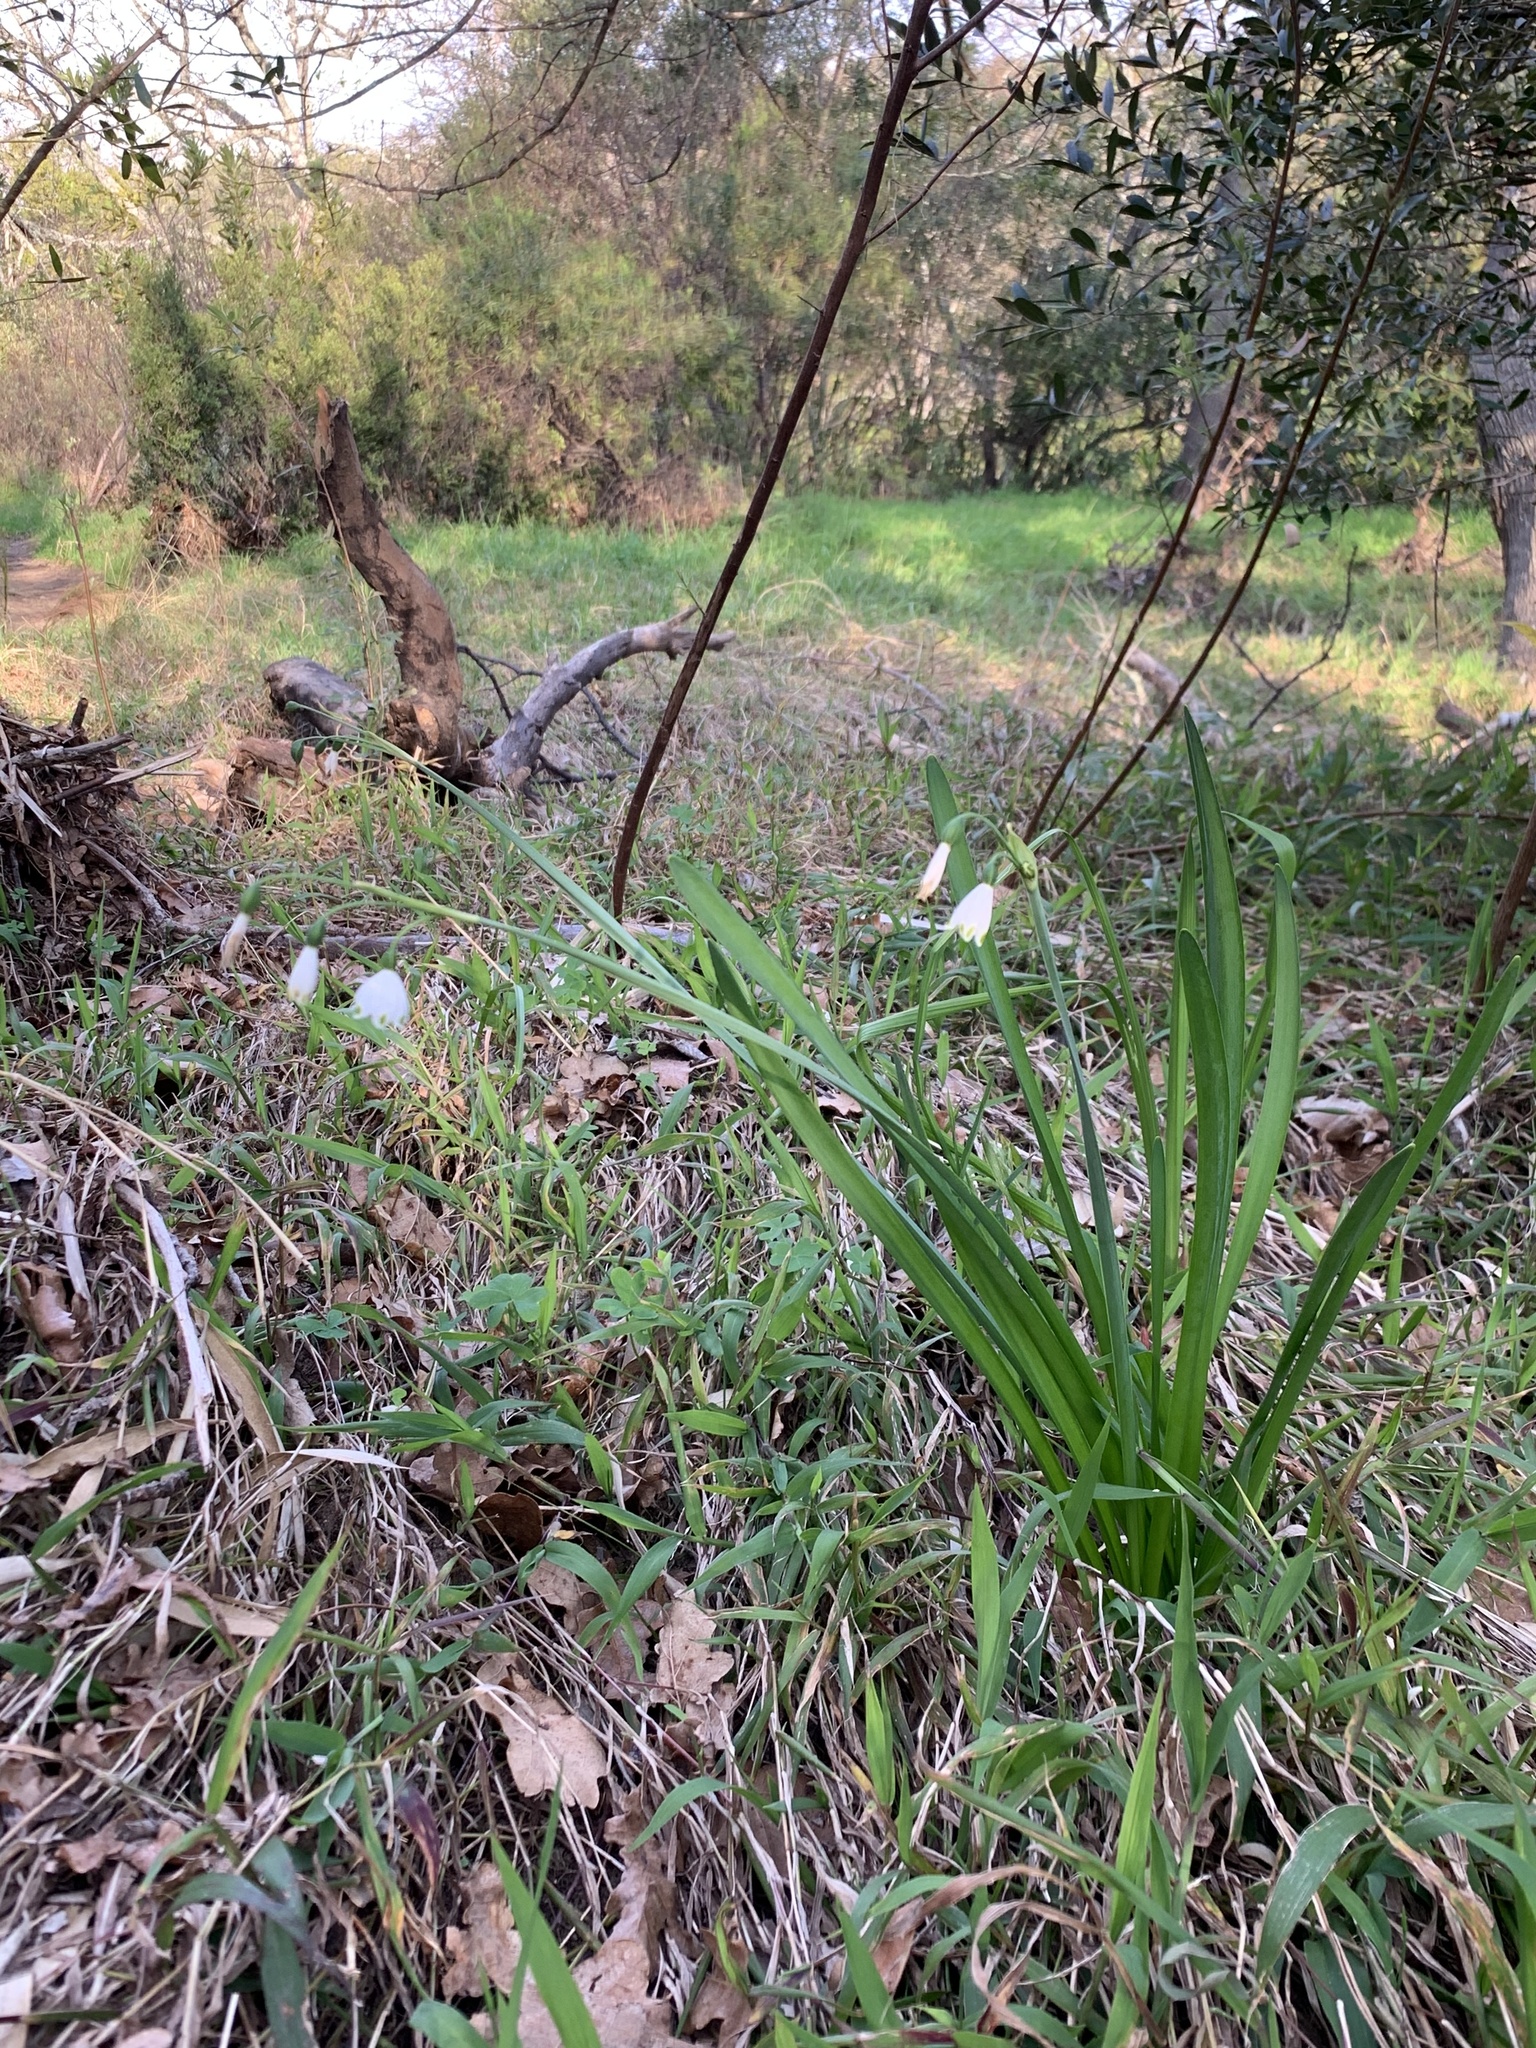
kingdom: Plantae
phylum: Tracheophyta
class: Liliopsida
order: Asparagales
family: Amaryllidaceae
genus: Leucojum
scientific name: Leucojum aestivum
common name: Summer snowflake
